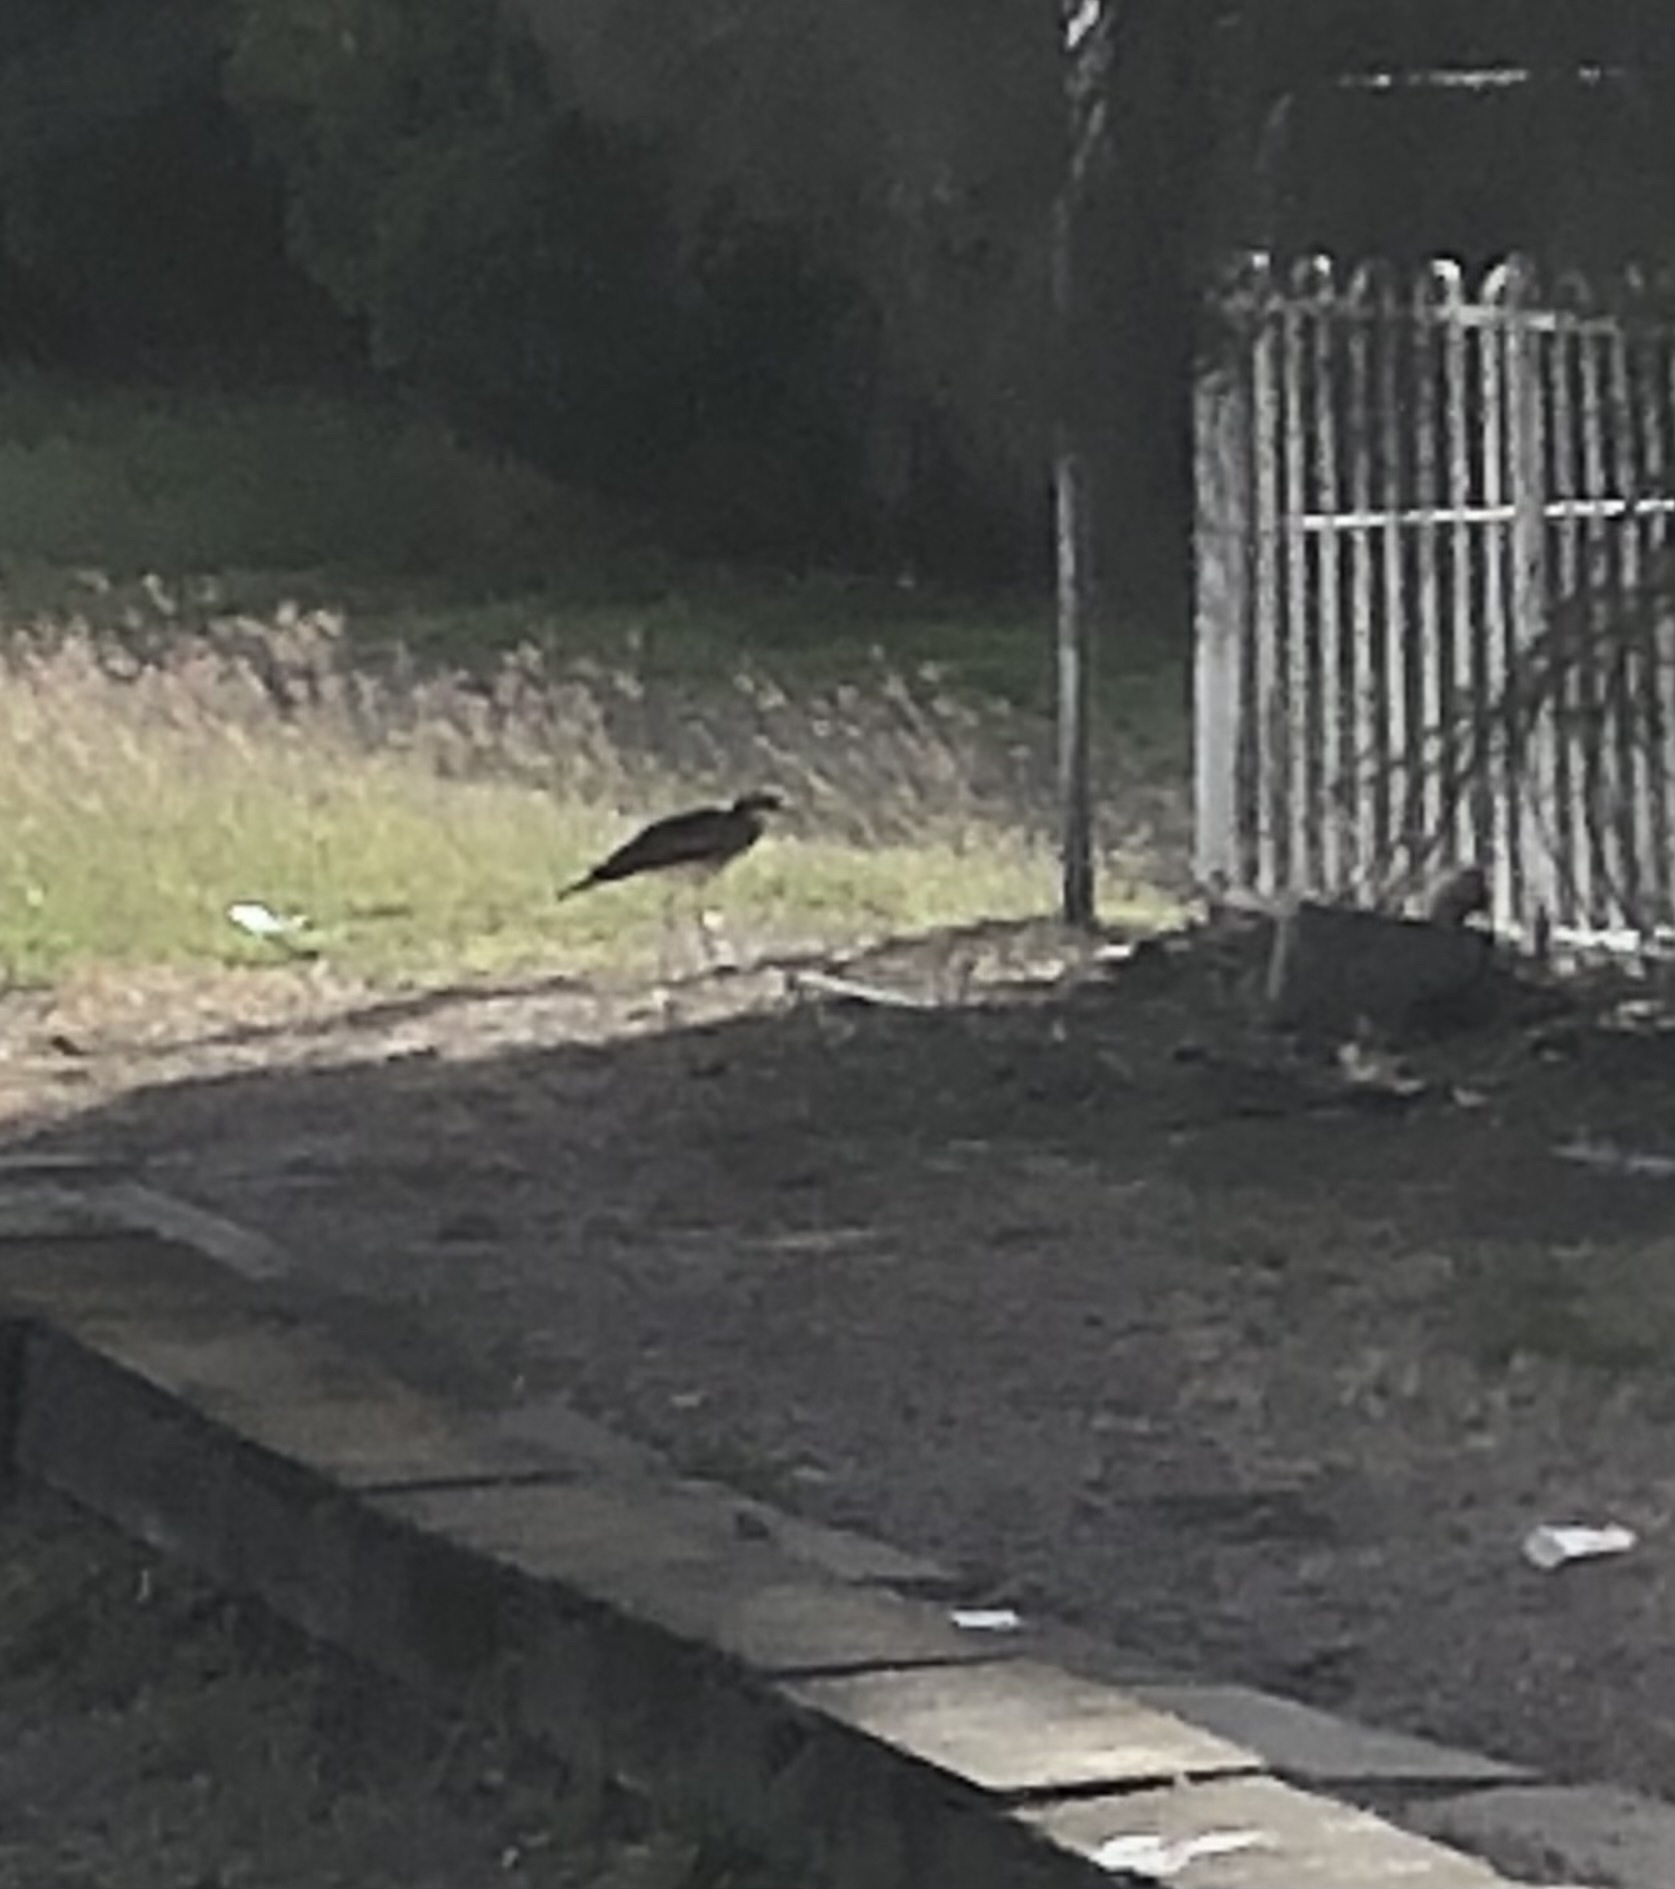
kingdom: Animalia
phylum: Chordata
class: Aves
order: Charadriiformes
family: Burhinidae
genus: Burhinus
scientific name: Burhinus grallarius
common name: Bush stone-curlew
